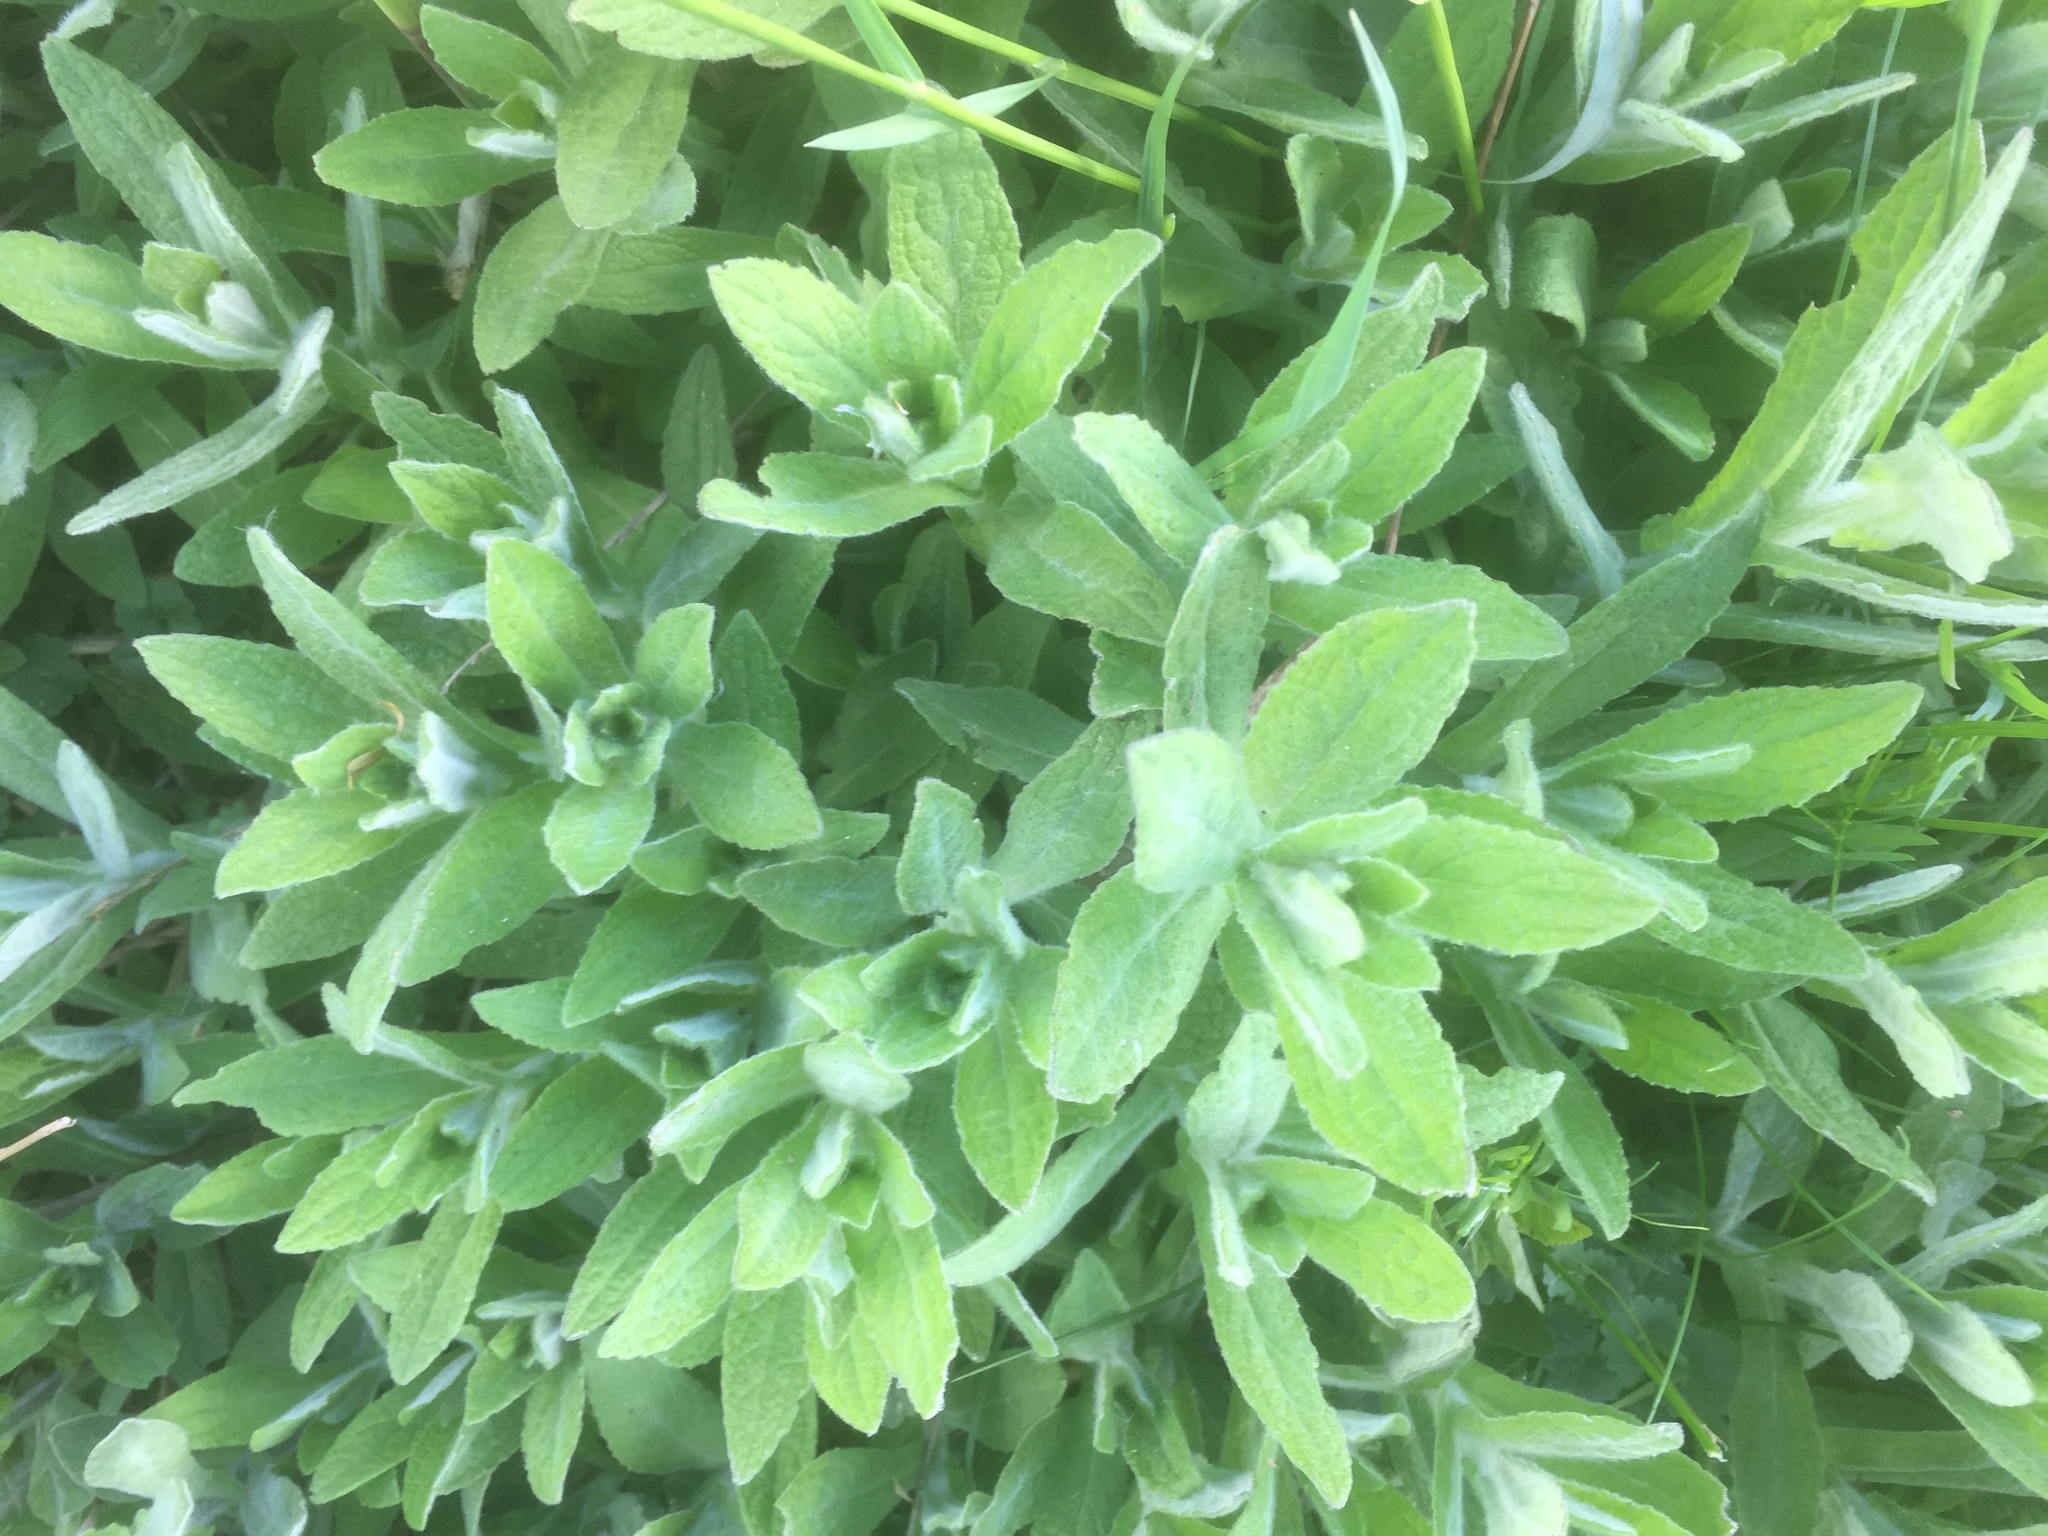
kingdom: Plantae
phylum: Tracheophyta
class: Magnoliopsida
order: Asterales
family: Asteraceae
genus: Pulicaria
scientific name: Pulicaria dysenterica
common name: Common fleabane
